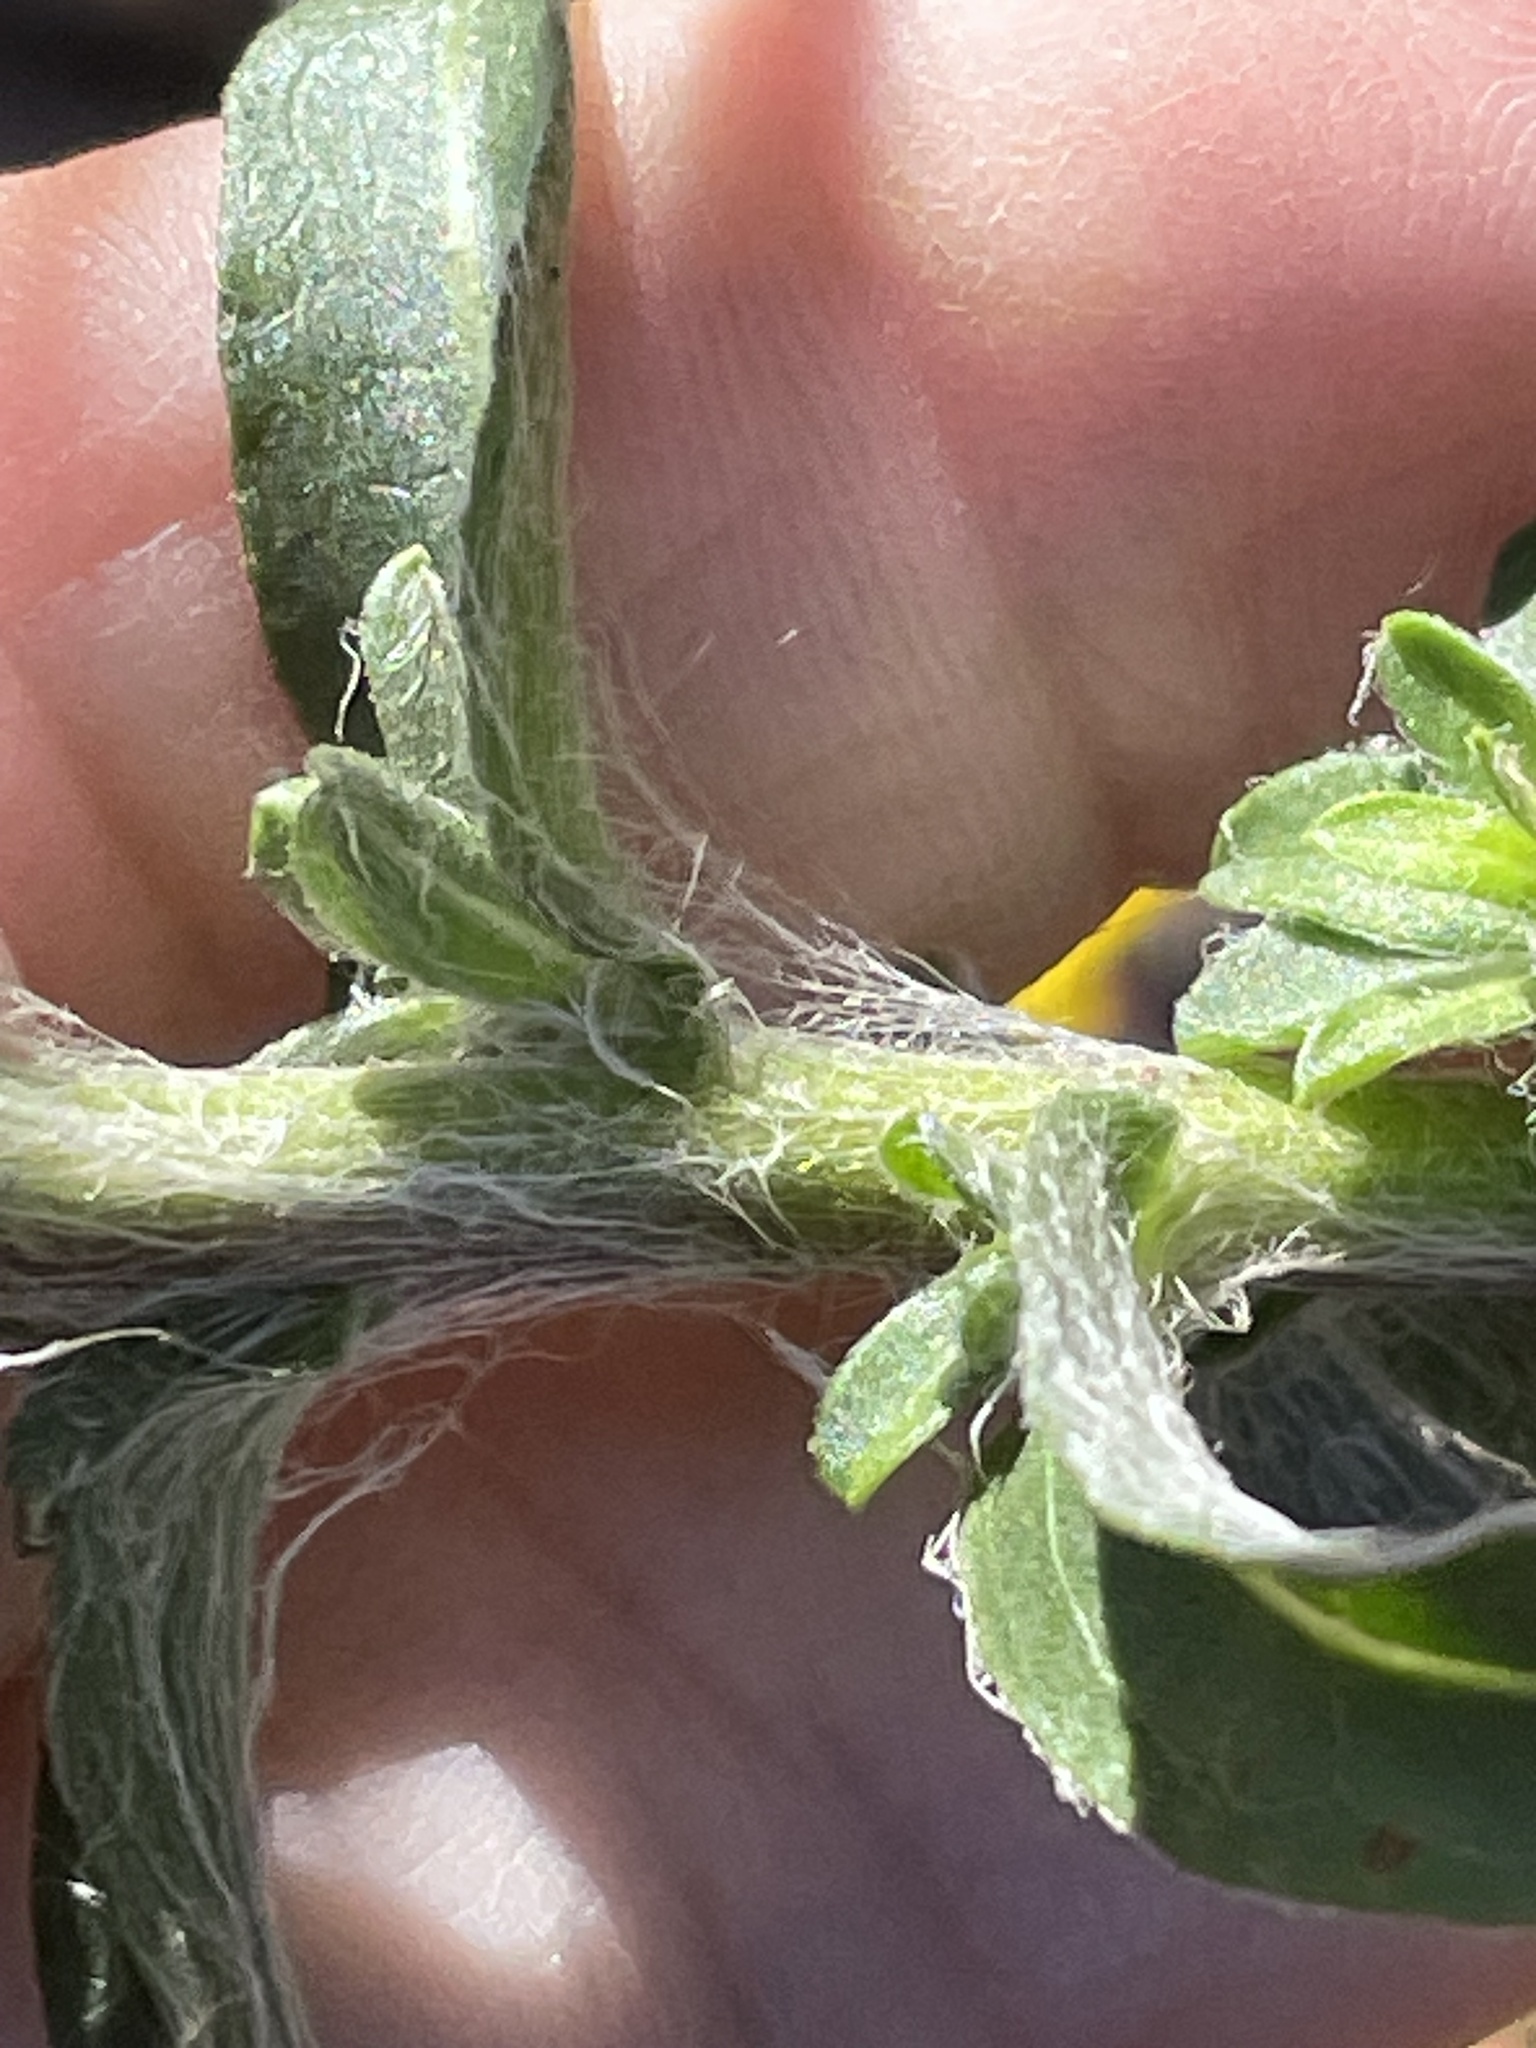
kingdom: Plantae
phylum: Tracheophyta
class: Magnoliopsida
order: Asterales
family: Asteraceae
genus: Chrysopsis
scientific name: Chrysopsis mariana
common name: Maryland golden-aster
